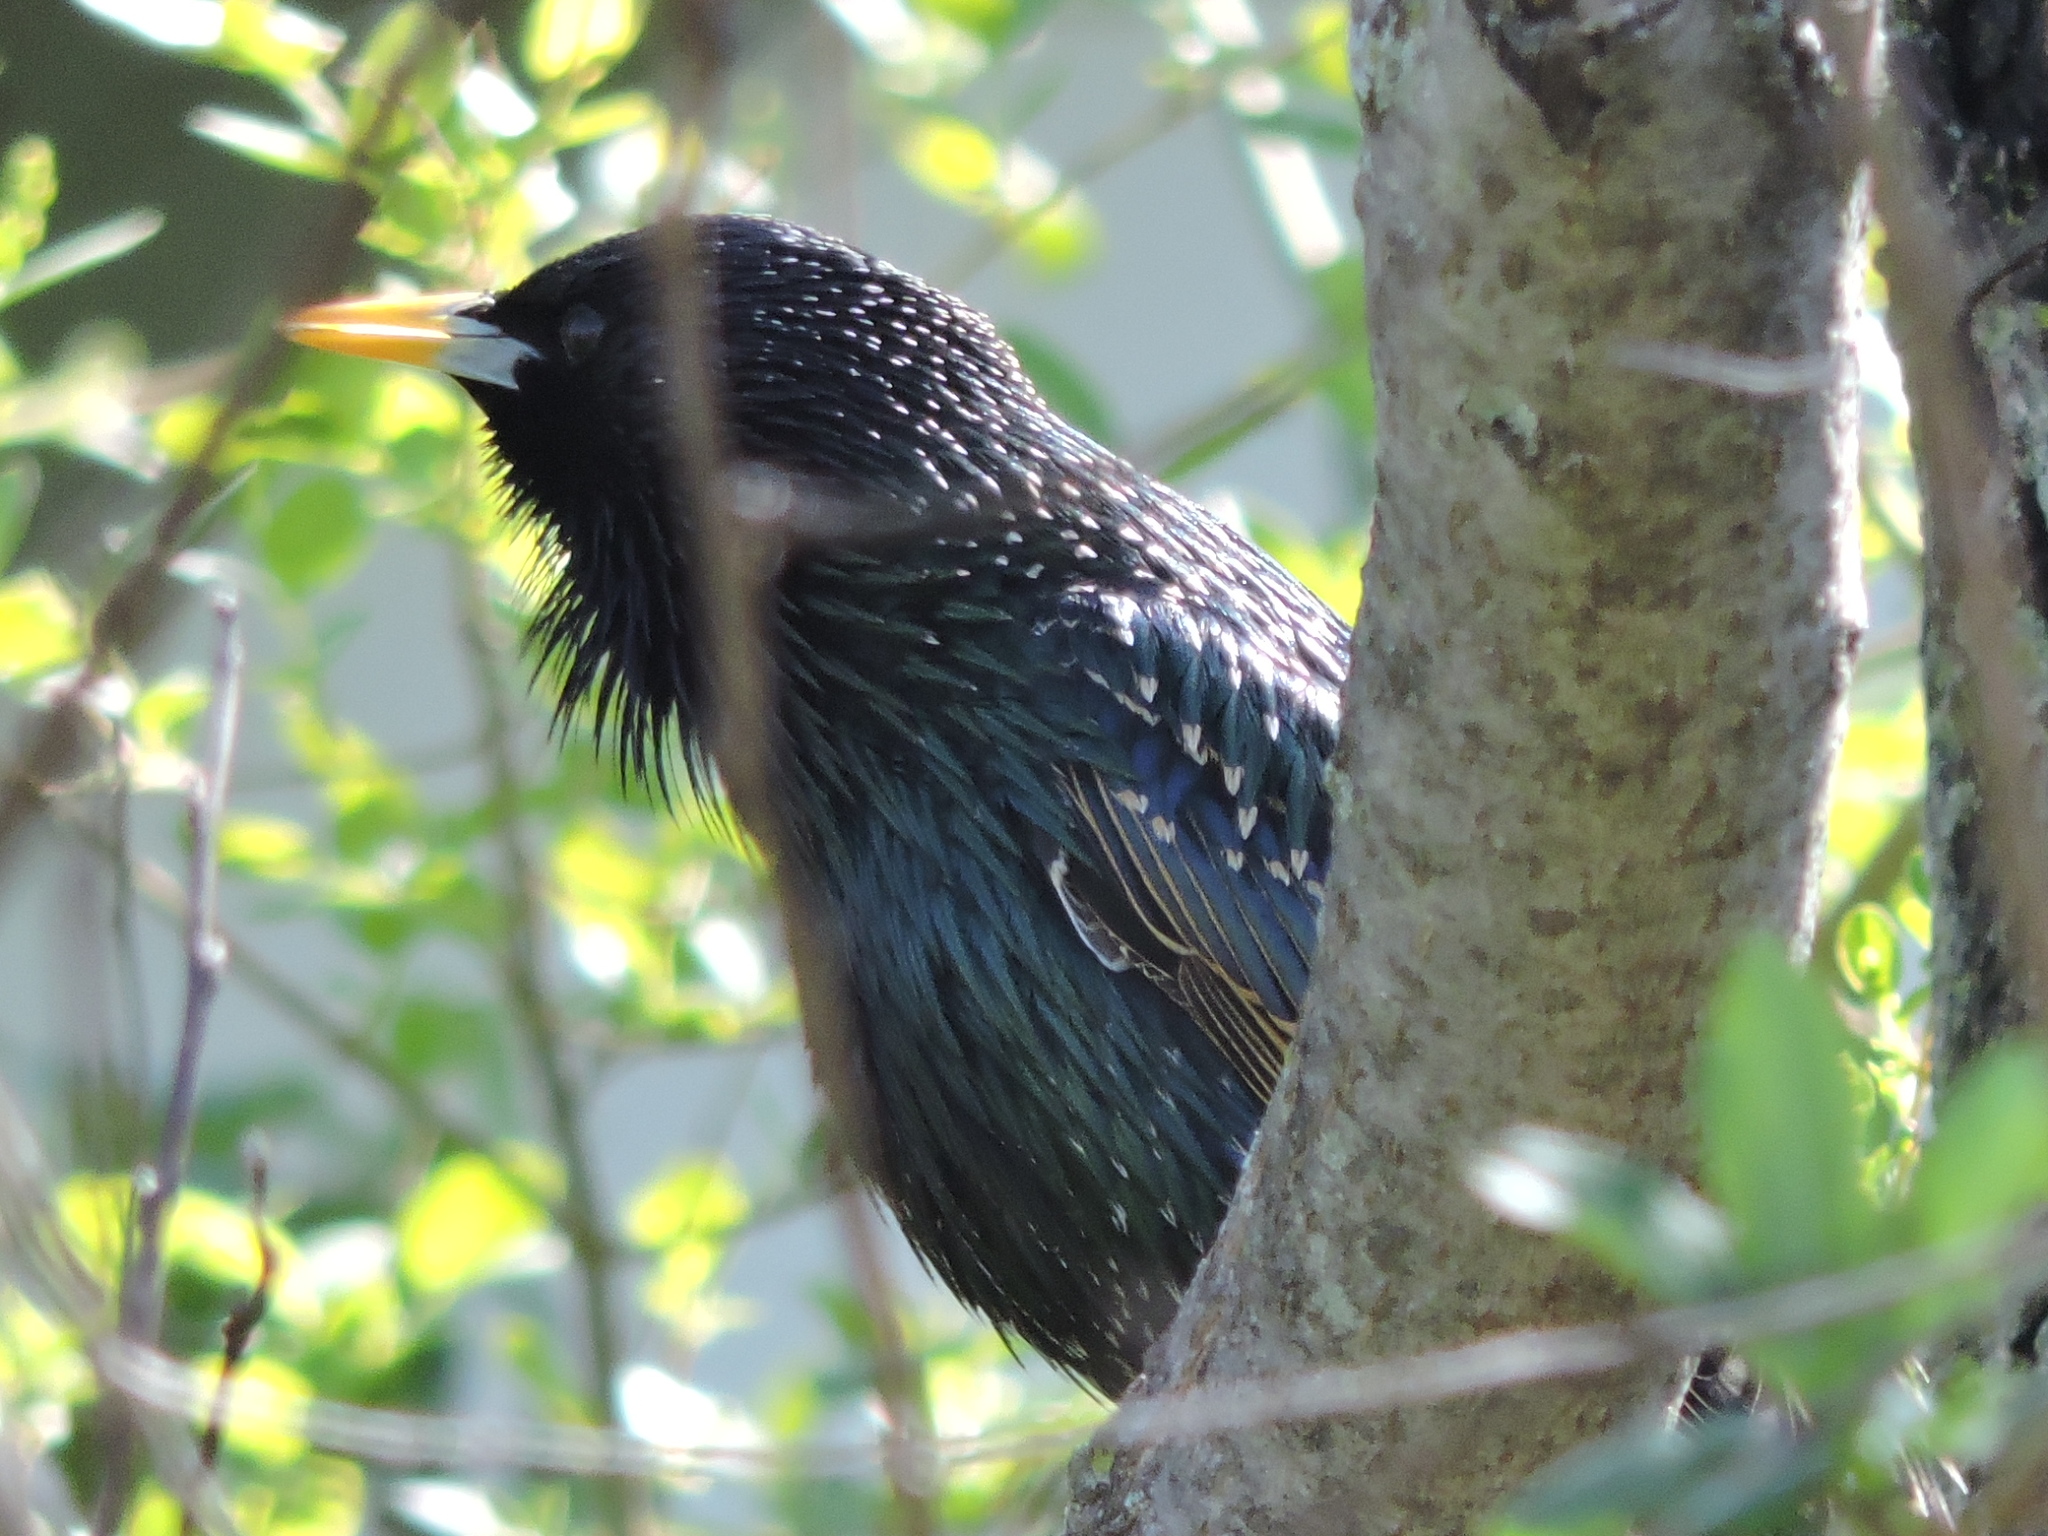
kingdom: Animalia
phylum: Chordata
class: Aves
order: Passeriformes
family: Sturnidae
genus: Sturnus
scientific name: Sturnus vulgaris
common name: Common starling
